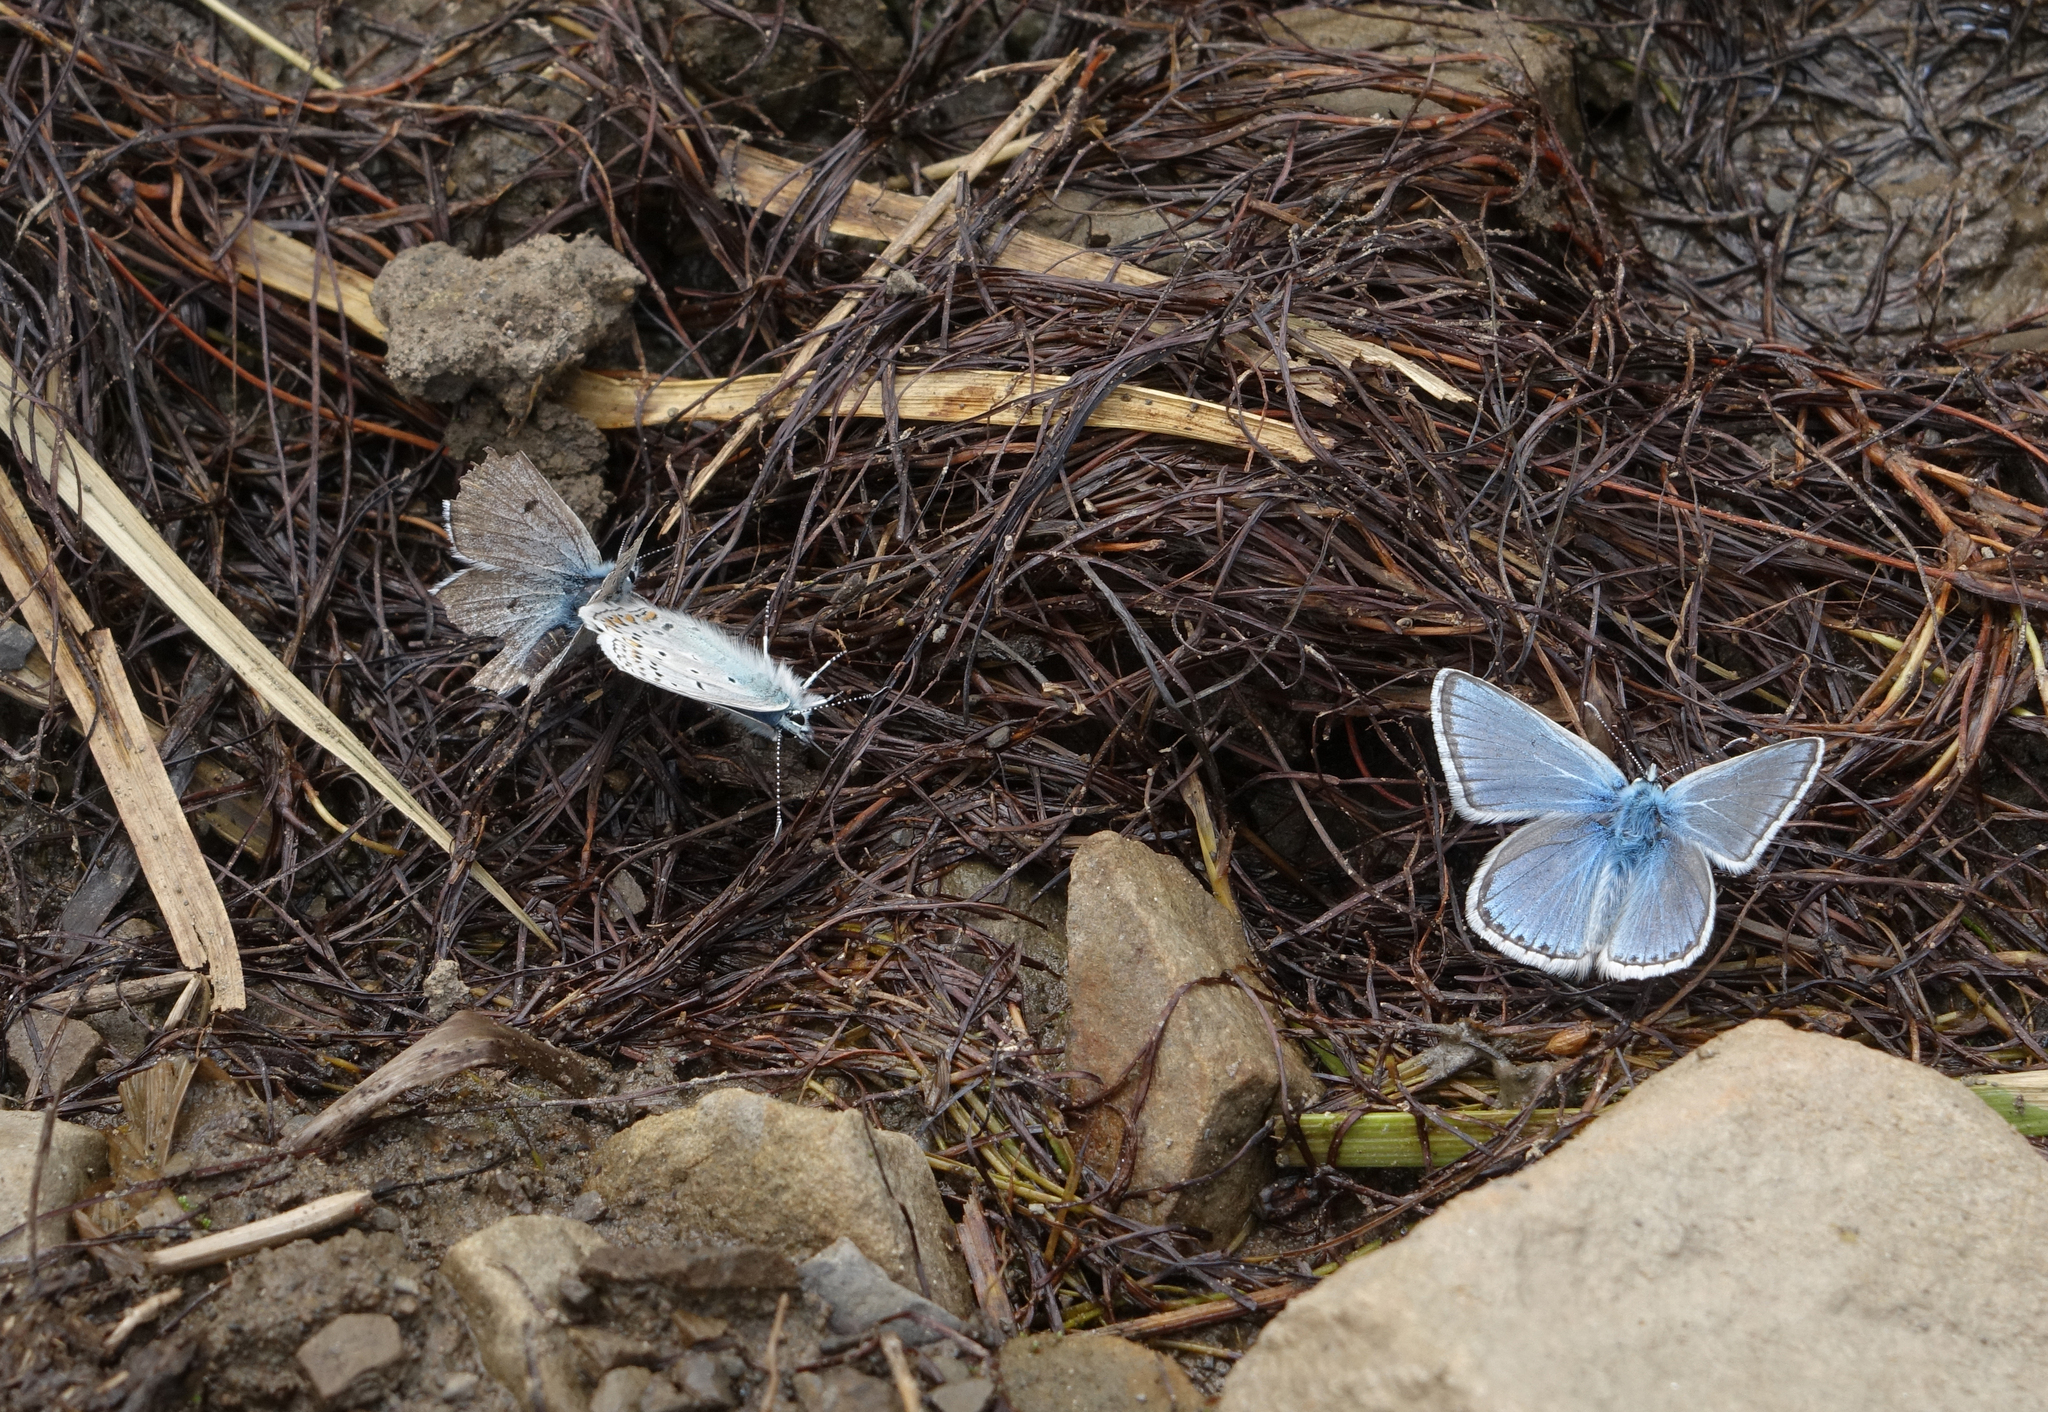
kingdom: Animalia
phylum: Arthropoda
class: Insecta
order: Lepidoptera
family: Lycaenidae
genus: Polyommatus
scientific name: Polyommatus eros
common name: Eros blue
